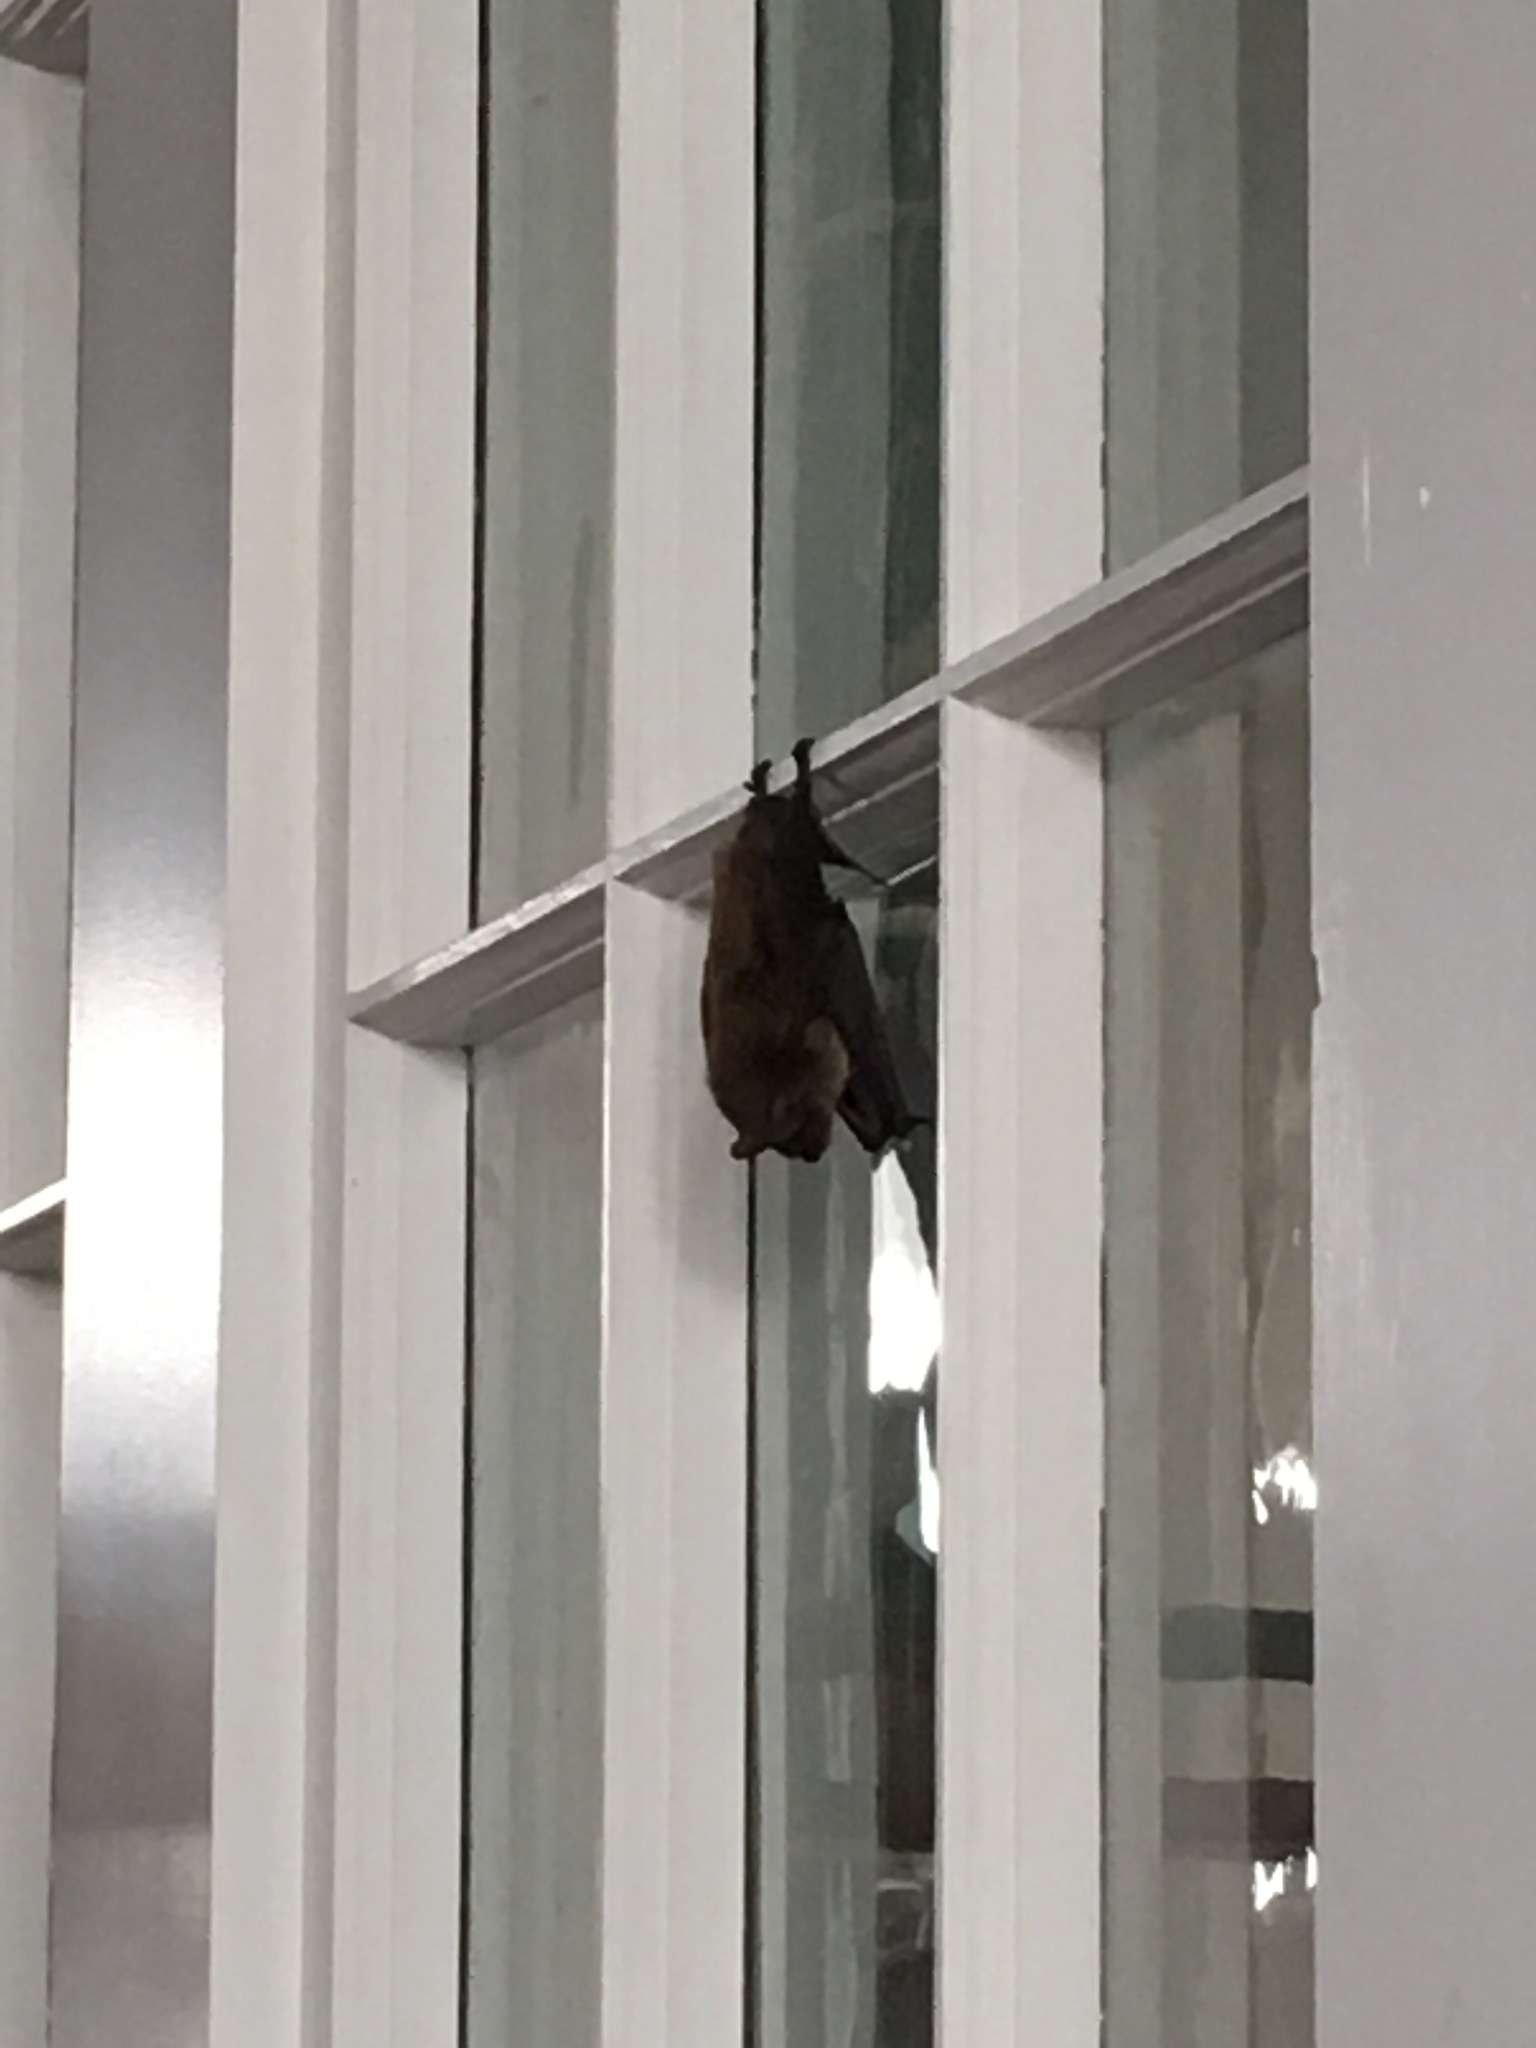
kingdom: Animalia
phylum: Chordata
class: Mammalia
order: Chiroptera
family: Vespertilionidae
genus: Eptesicus
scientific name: Eptesicus fuscus
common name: Big brown bat
